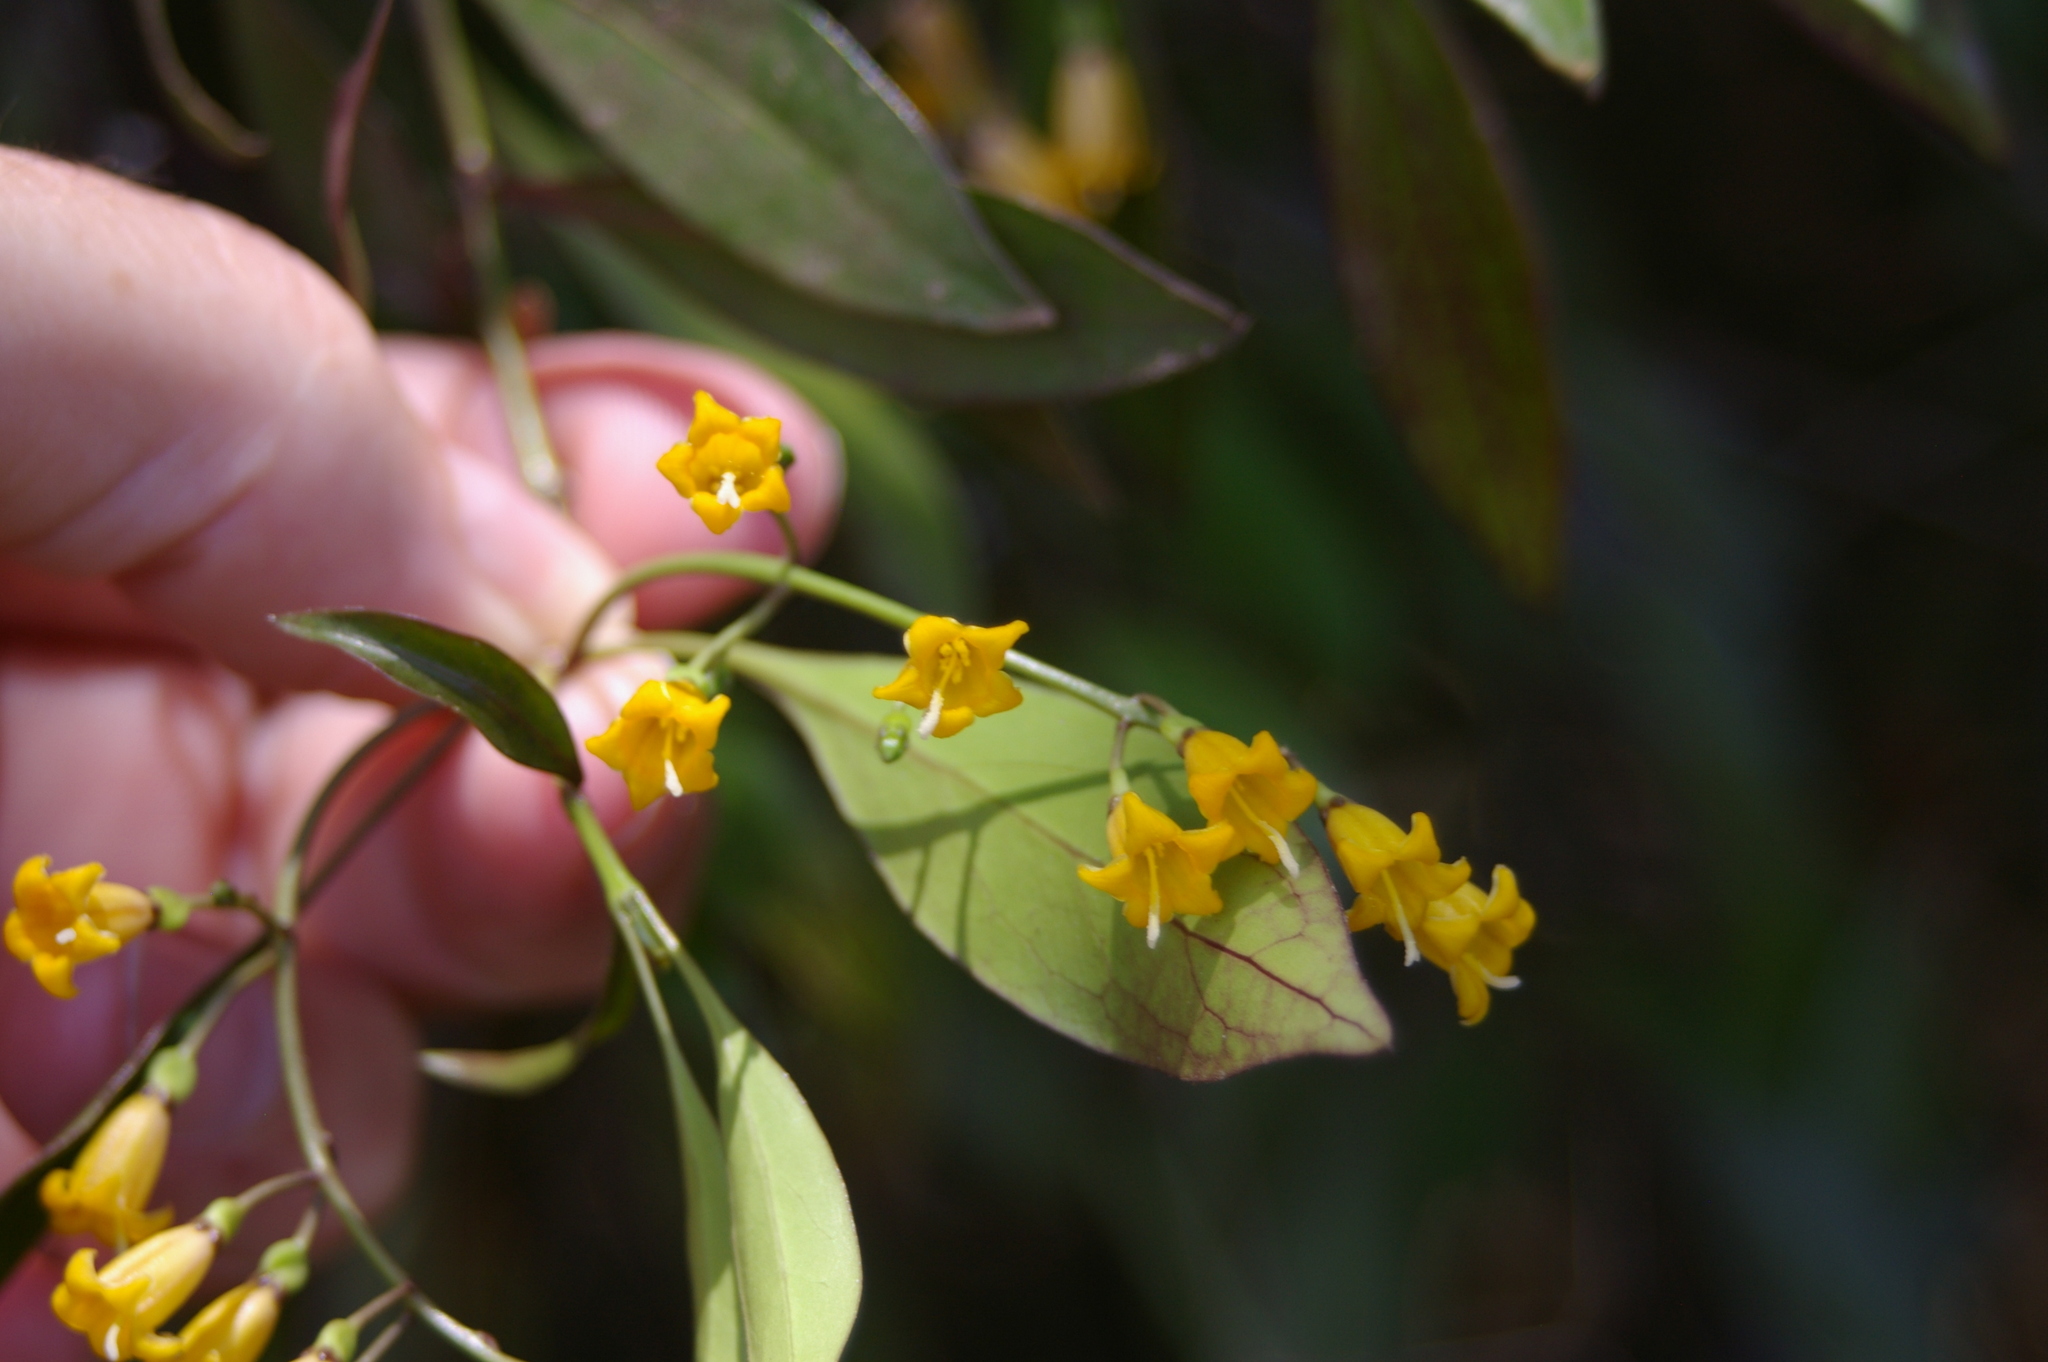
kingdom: Plantae
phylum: Tracheophyta
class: Magnoliopsida
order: Gentianales
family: Rubiaceae
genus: Chiococca
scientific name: Chiococca alba
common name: Snowberry
